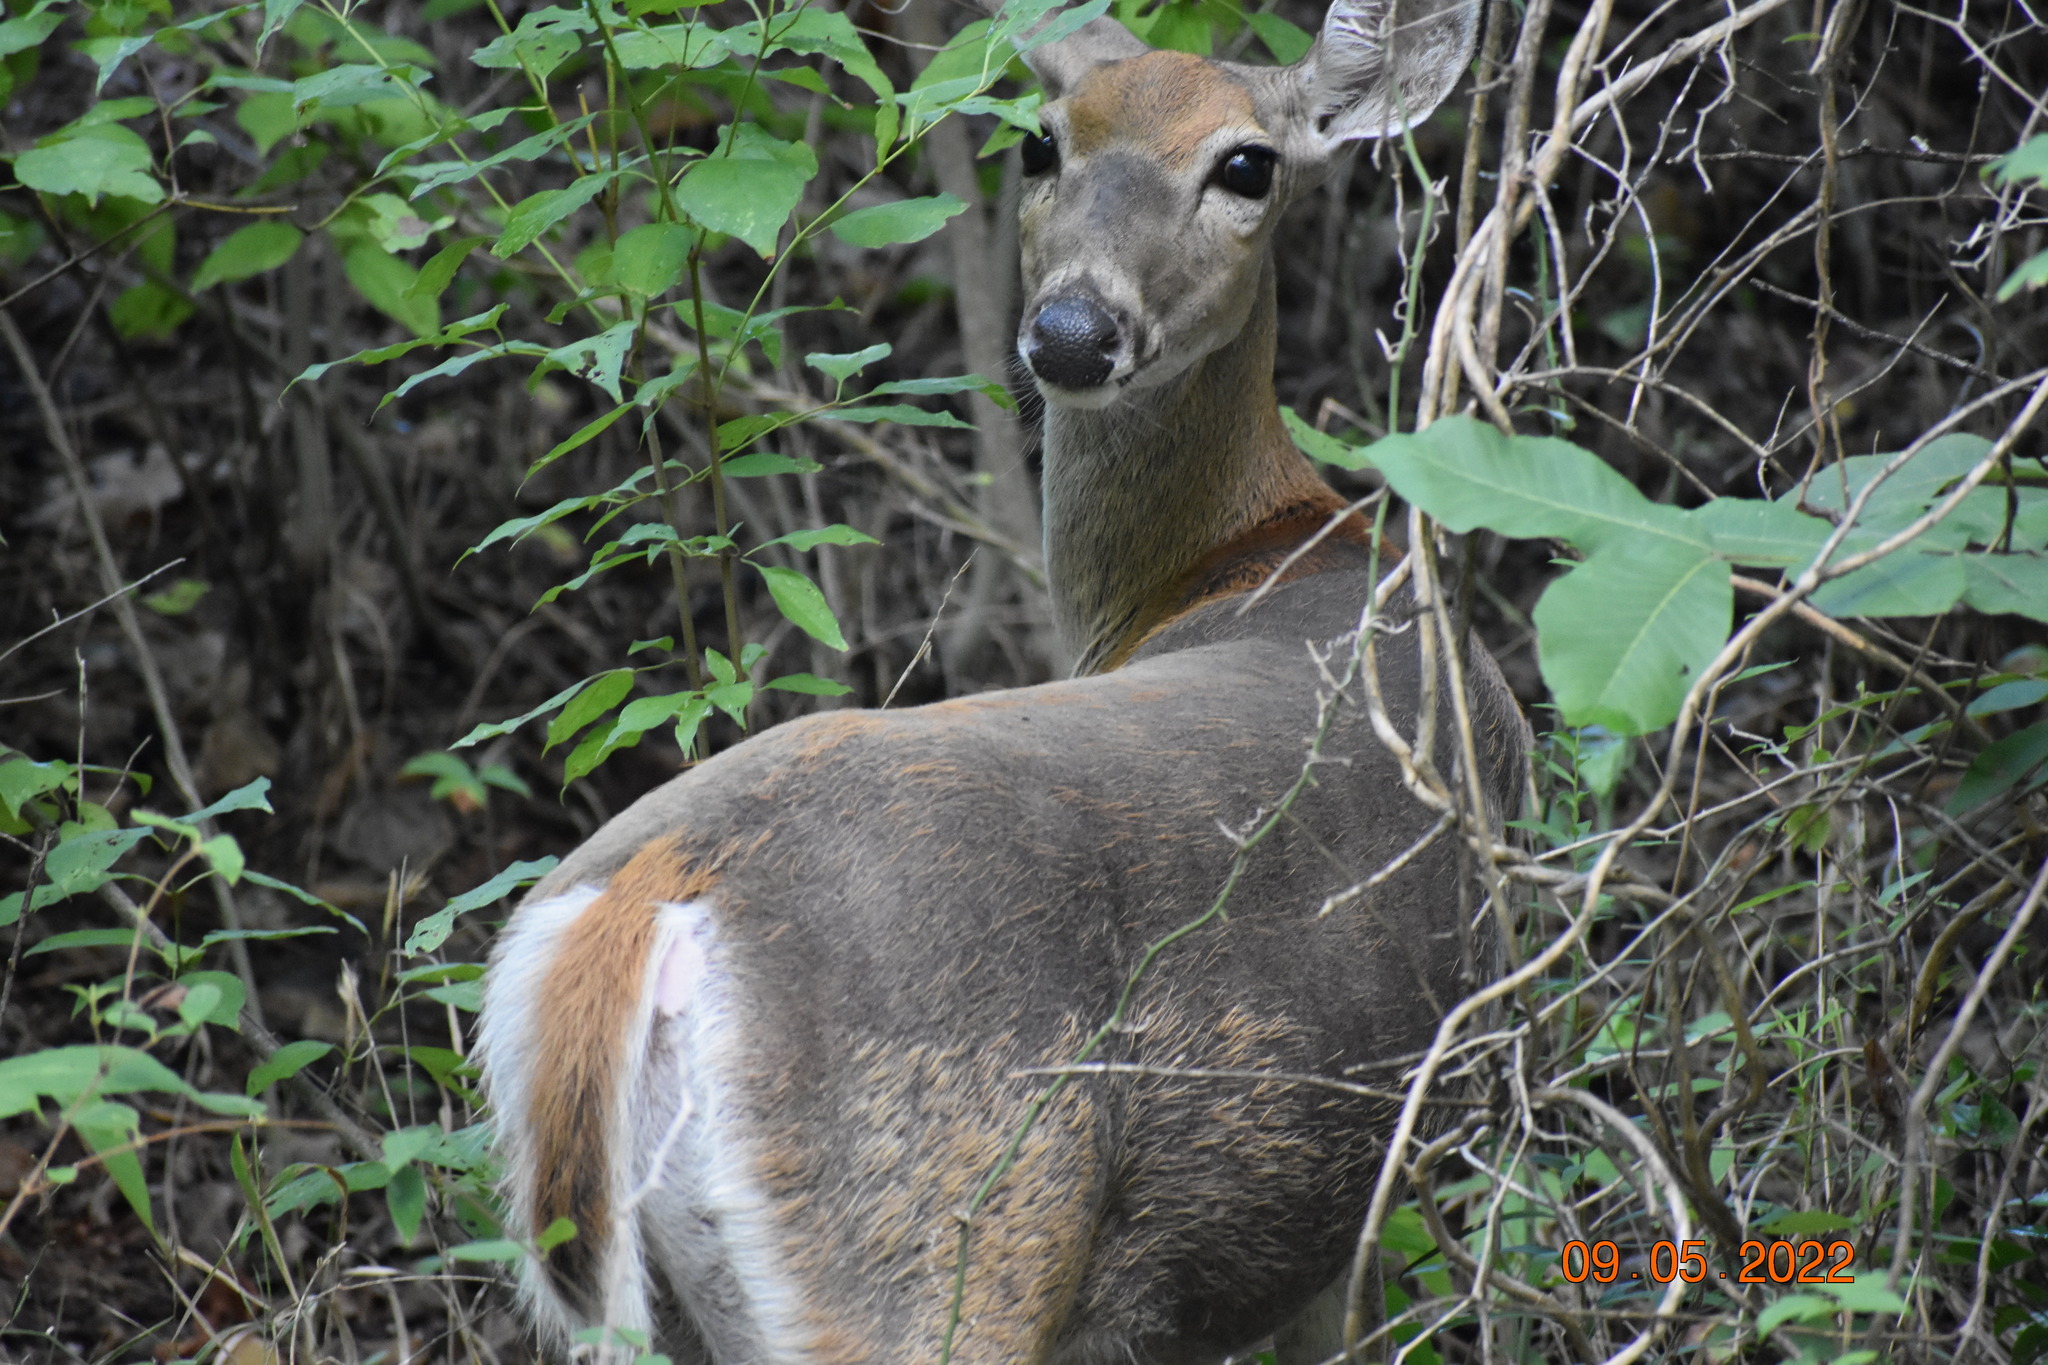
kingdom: Animalia
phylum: Chordata
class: Mammalia
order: Artiodactyla
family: Cervidae
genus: Odocoileus
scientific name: Odocoileus virginianus
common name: White-tailed deer
